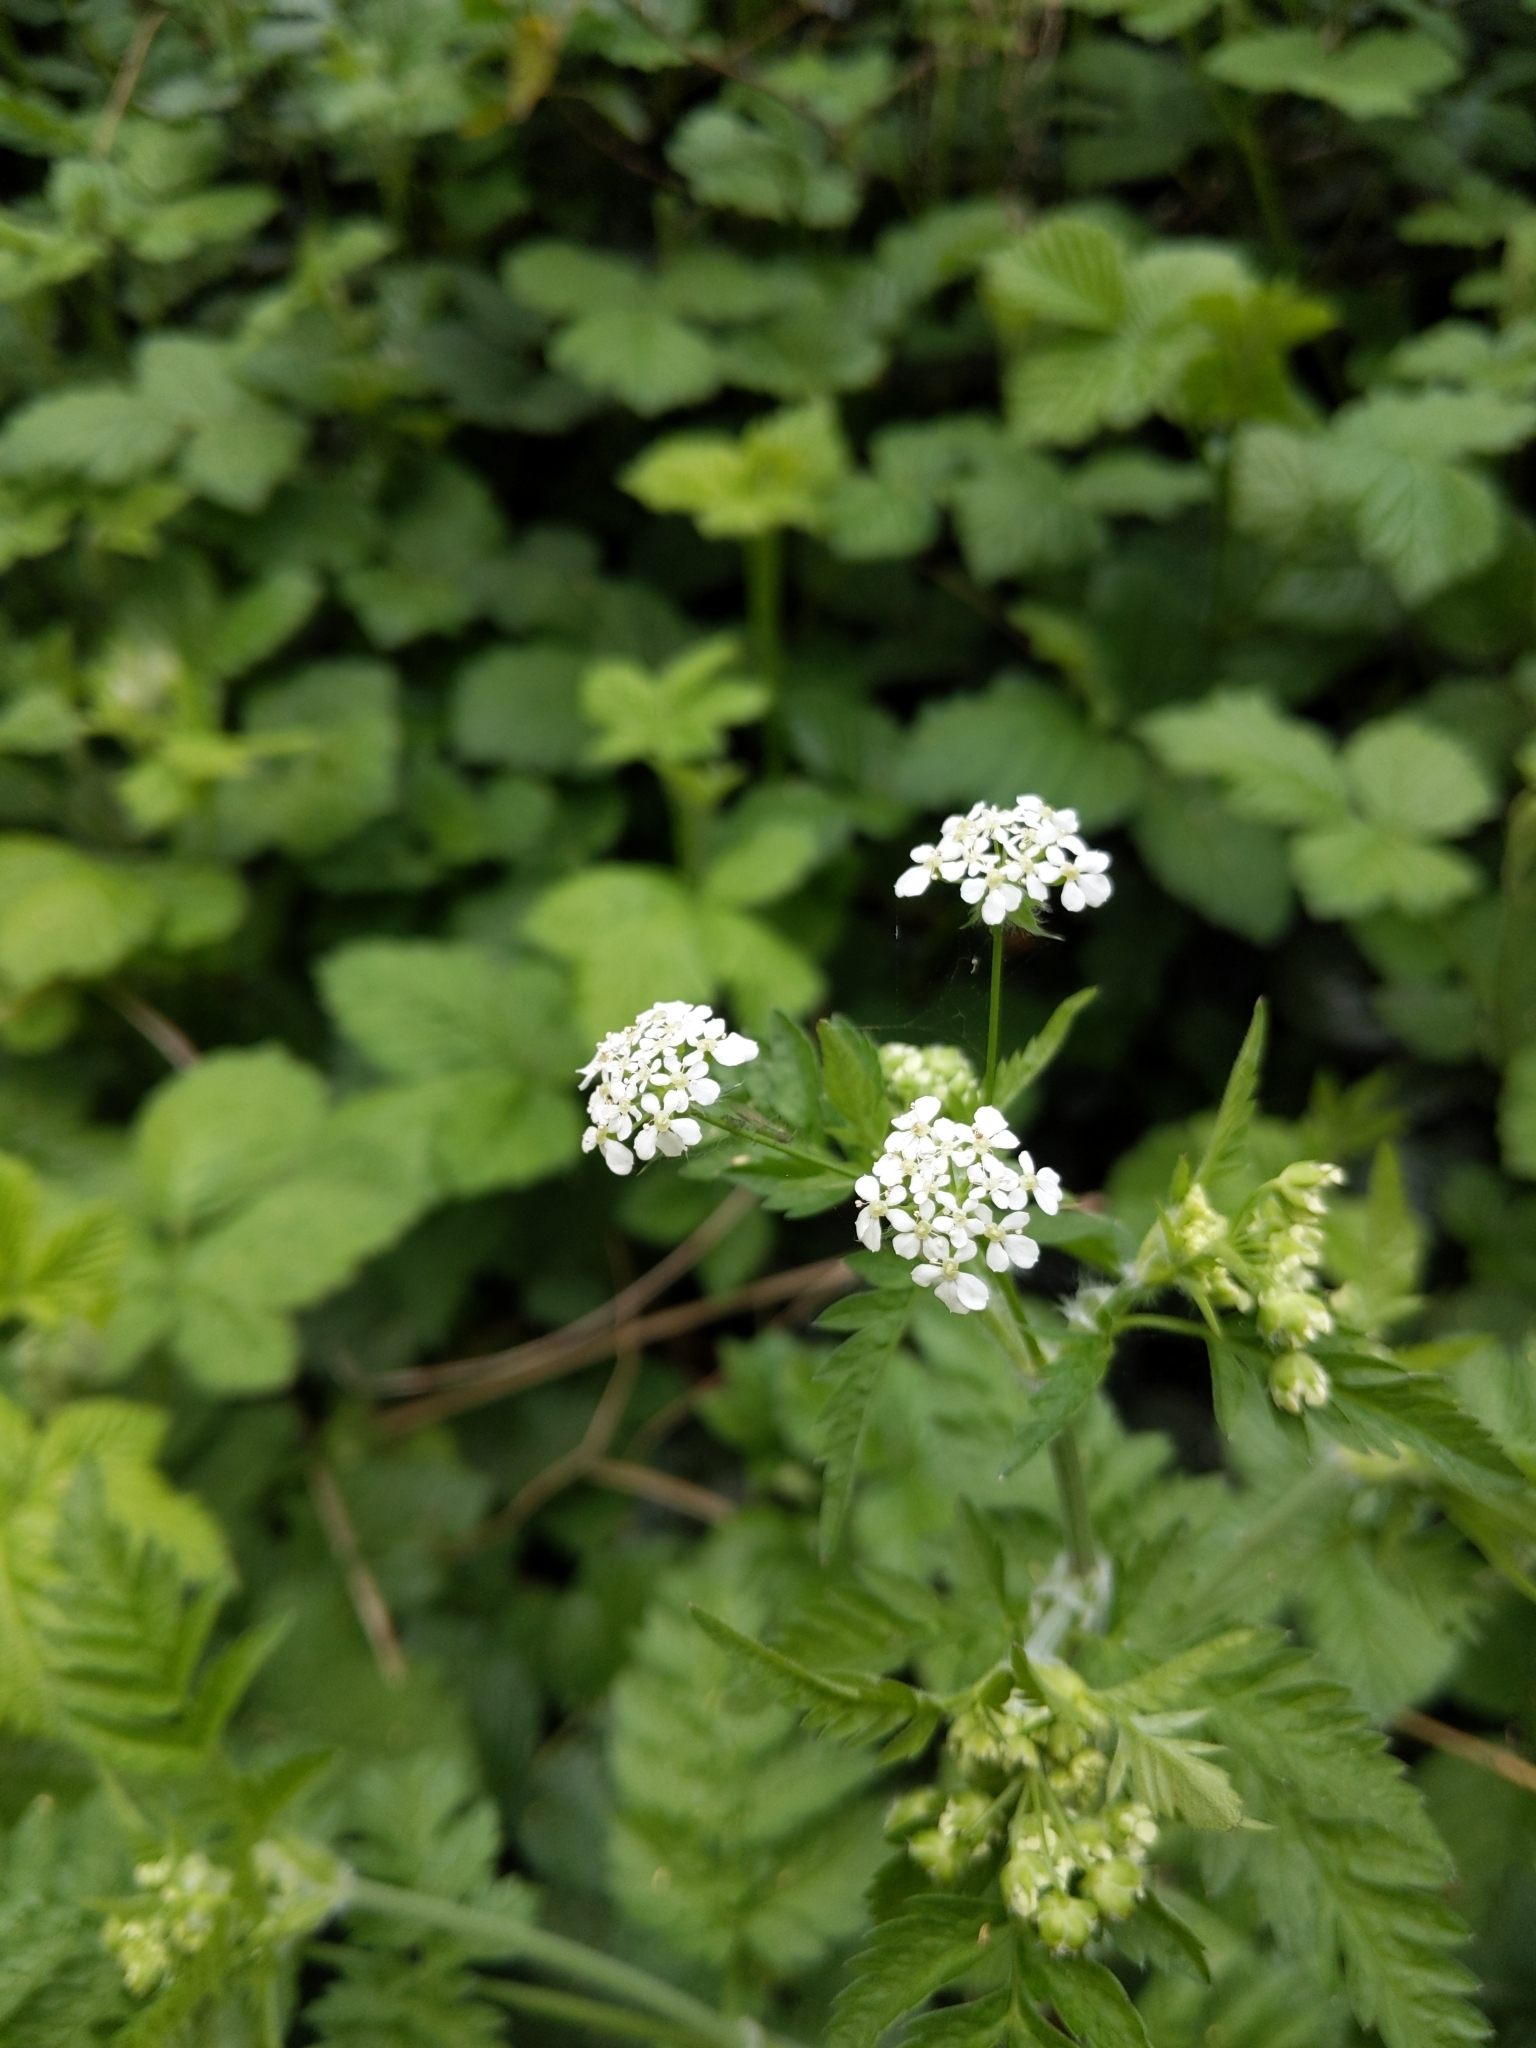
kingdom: Plantae
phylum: Tracheophyta
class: Magnoliopsida
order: Apiales
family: Apiaceae
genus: Anthriscus
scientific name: Anthriscus sylvestris
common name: Cow parsley
